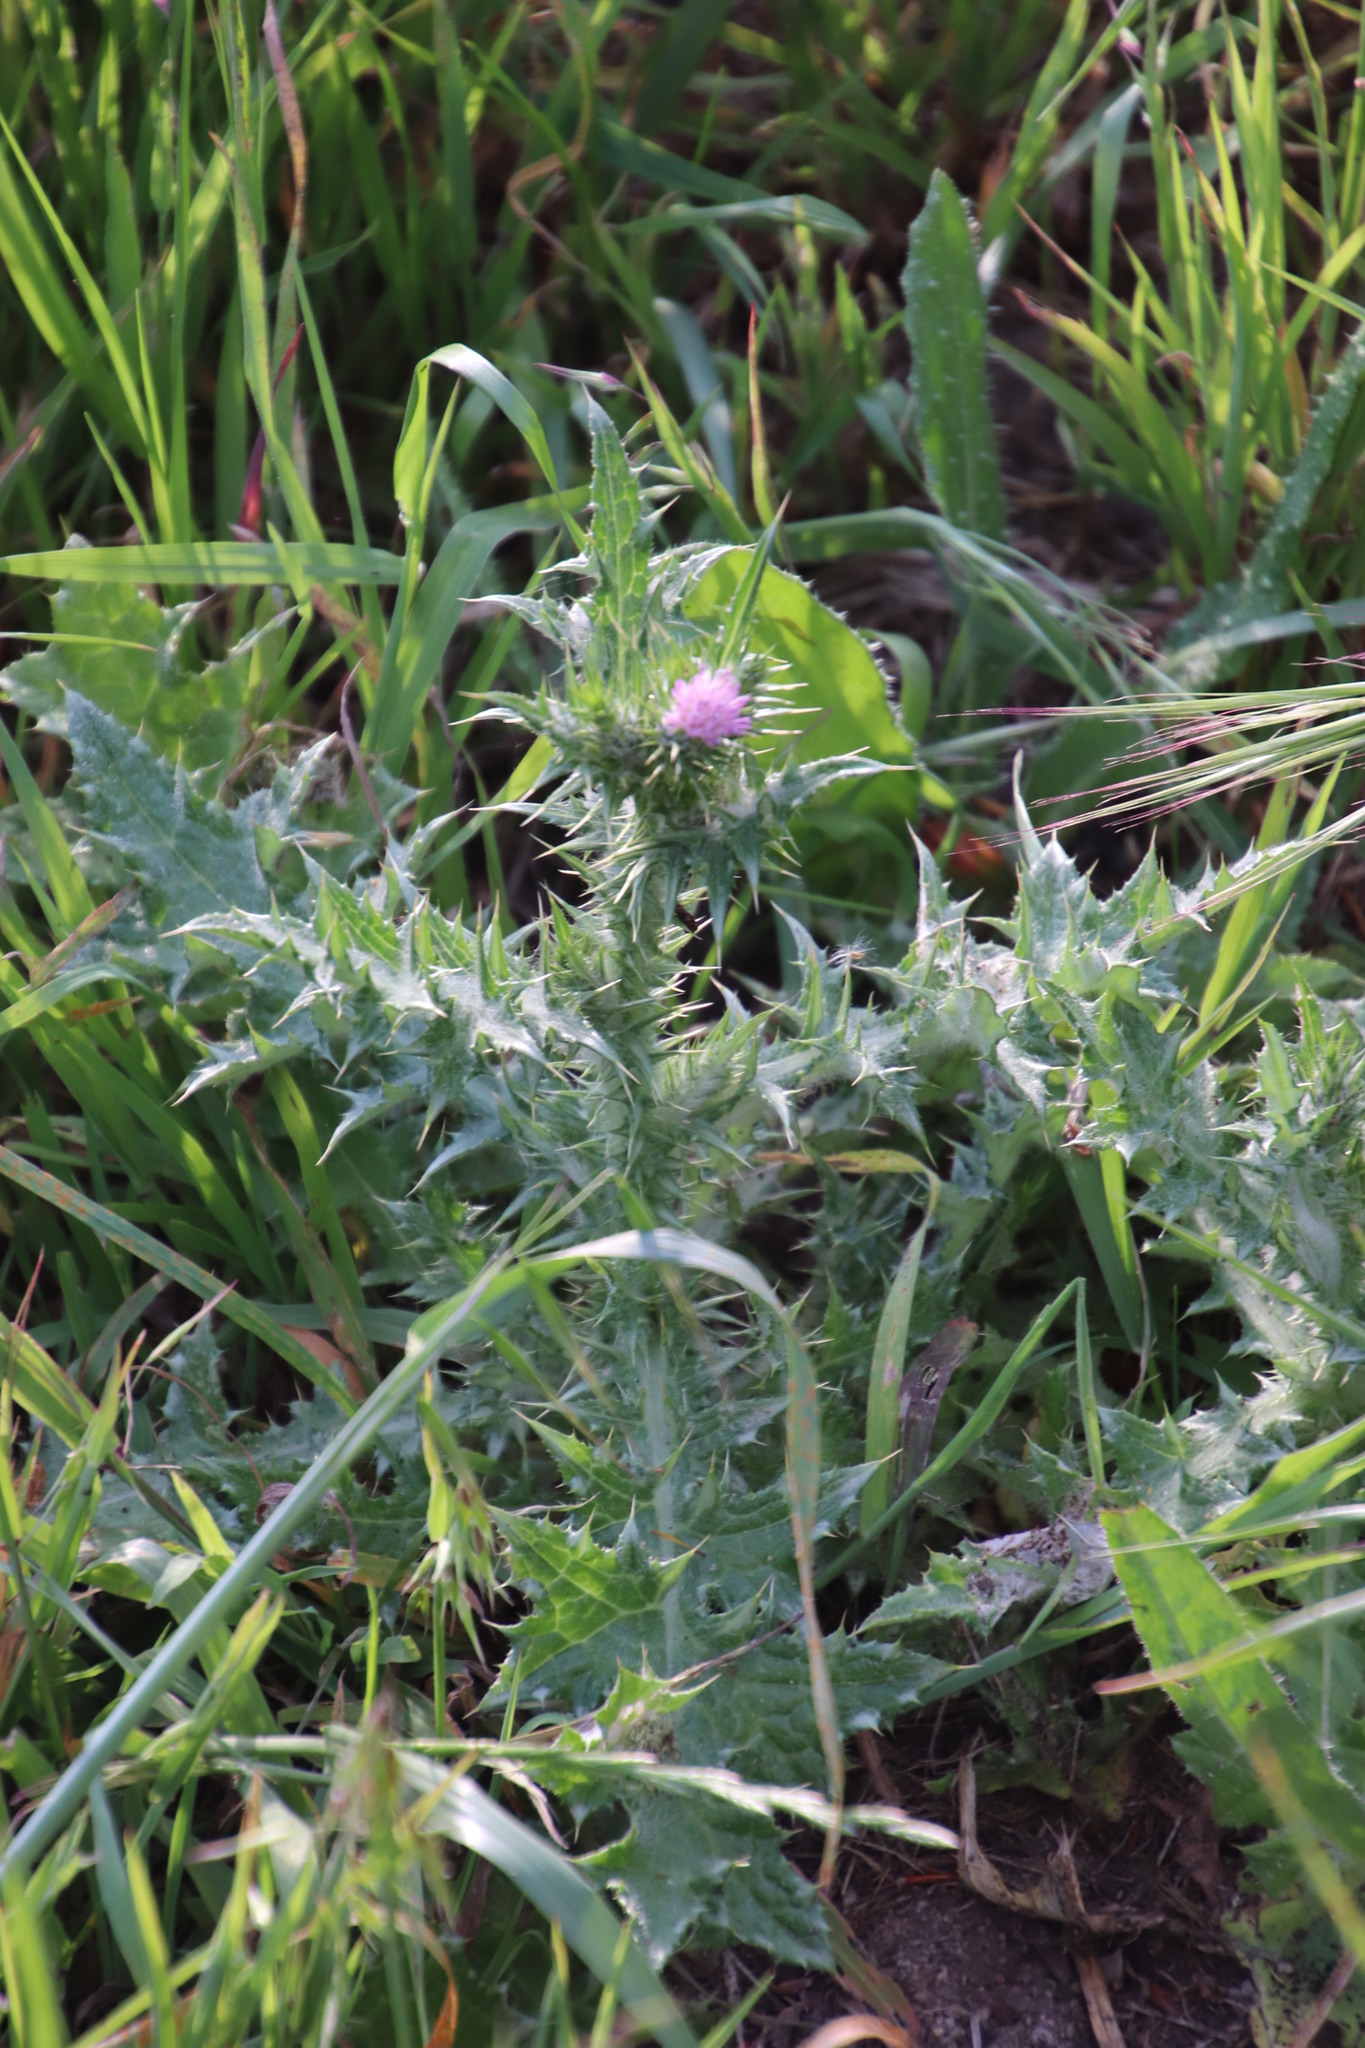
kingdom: Plantae
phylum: Tracheophyta
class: Magnoliopsida
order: Asterales
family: Asteraceae
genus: Carduus
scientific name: Carduus pycnocephalus
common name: Plymouth thistle
